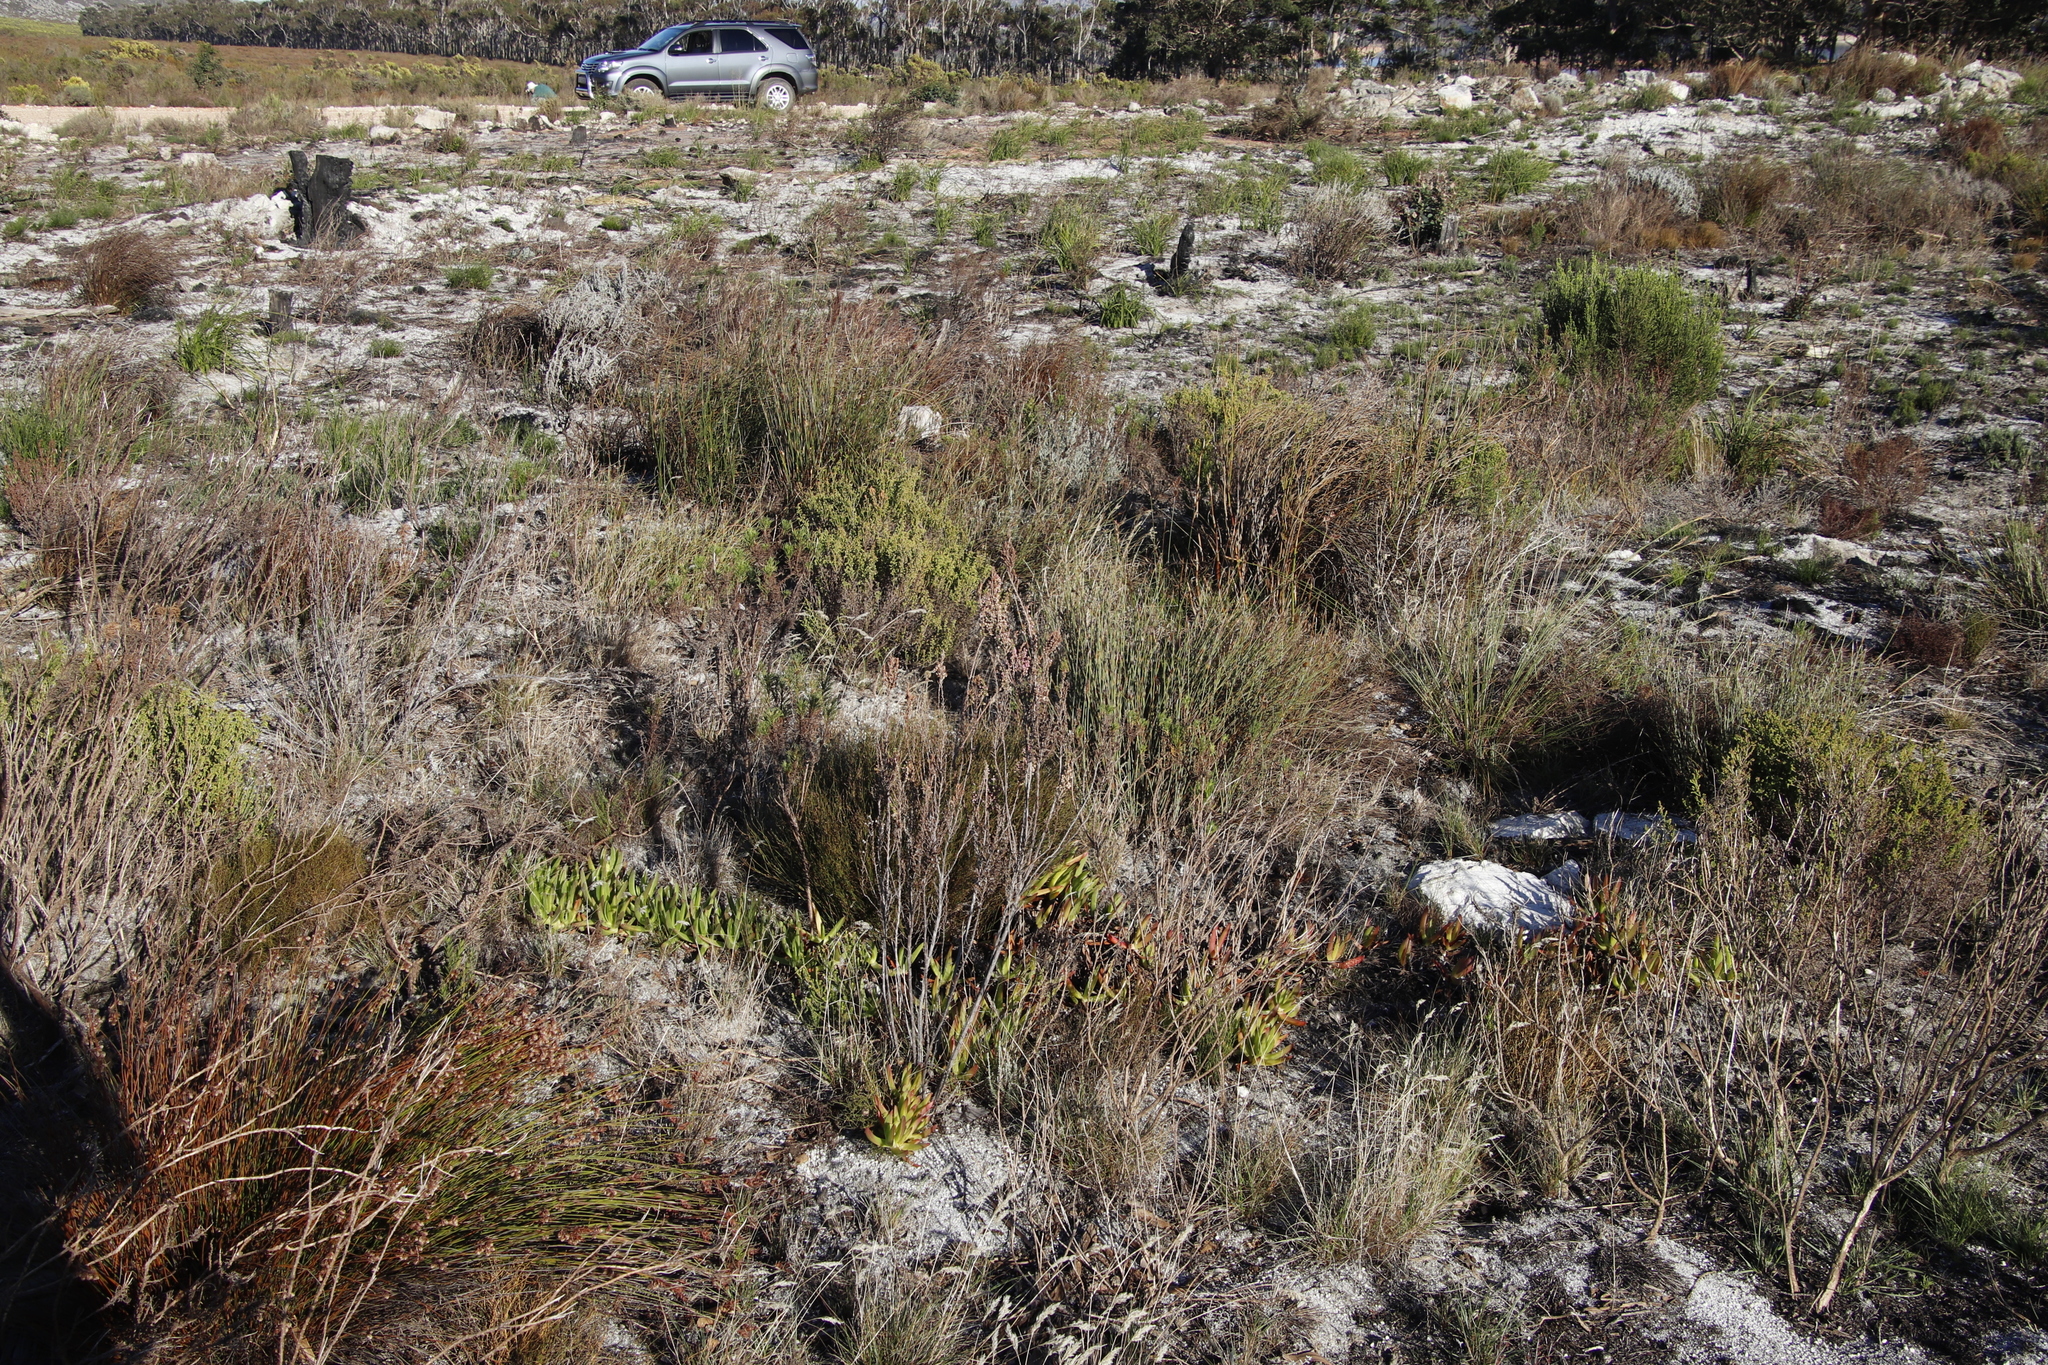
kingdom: Plantae
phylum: Tracheophyta
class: Magnoliopsida
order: Ericales
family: Ericaceae
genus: Erica
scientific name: Erica placentiflora
